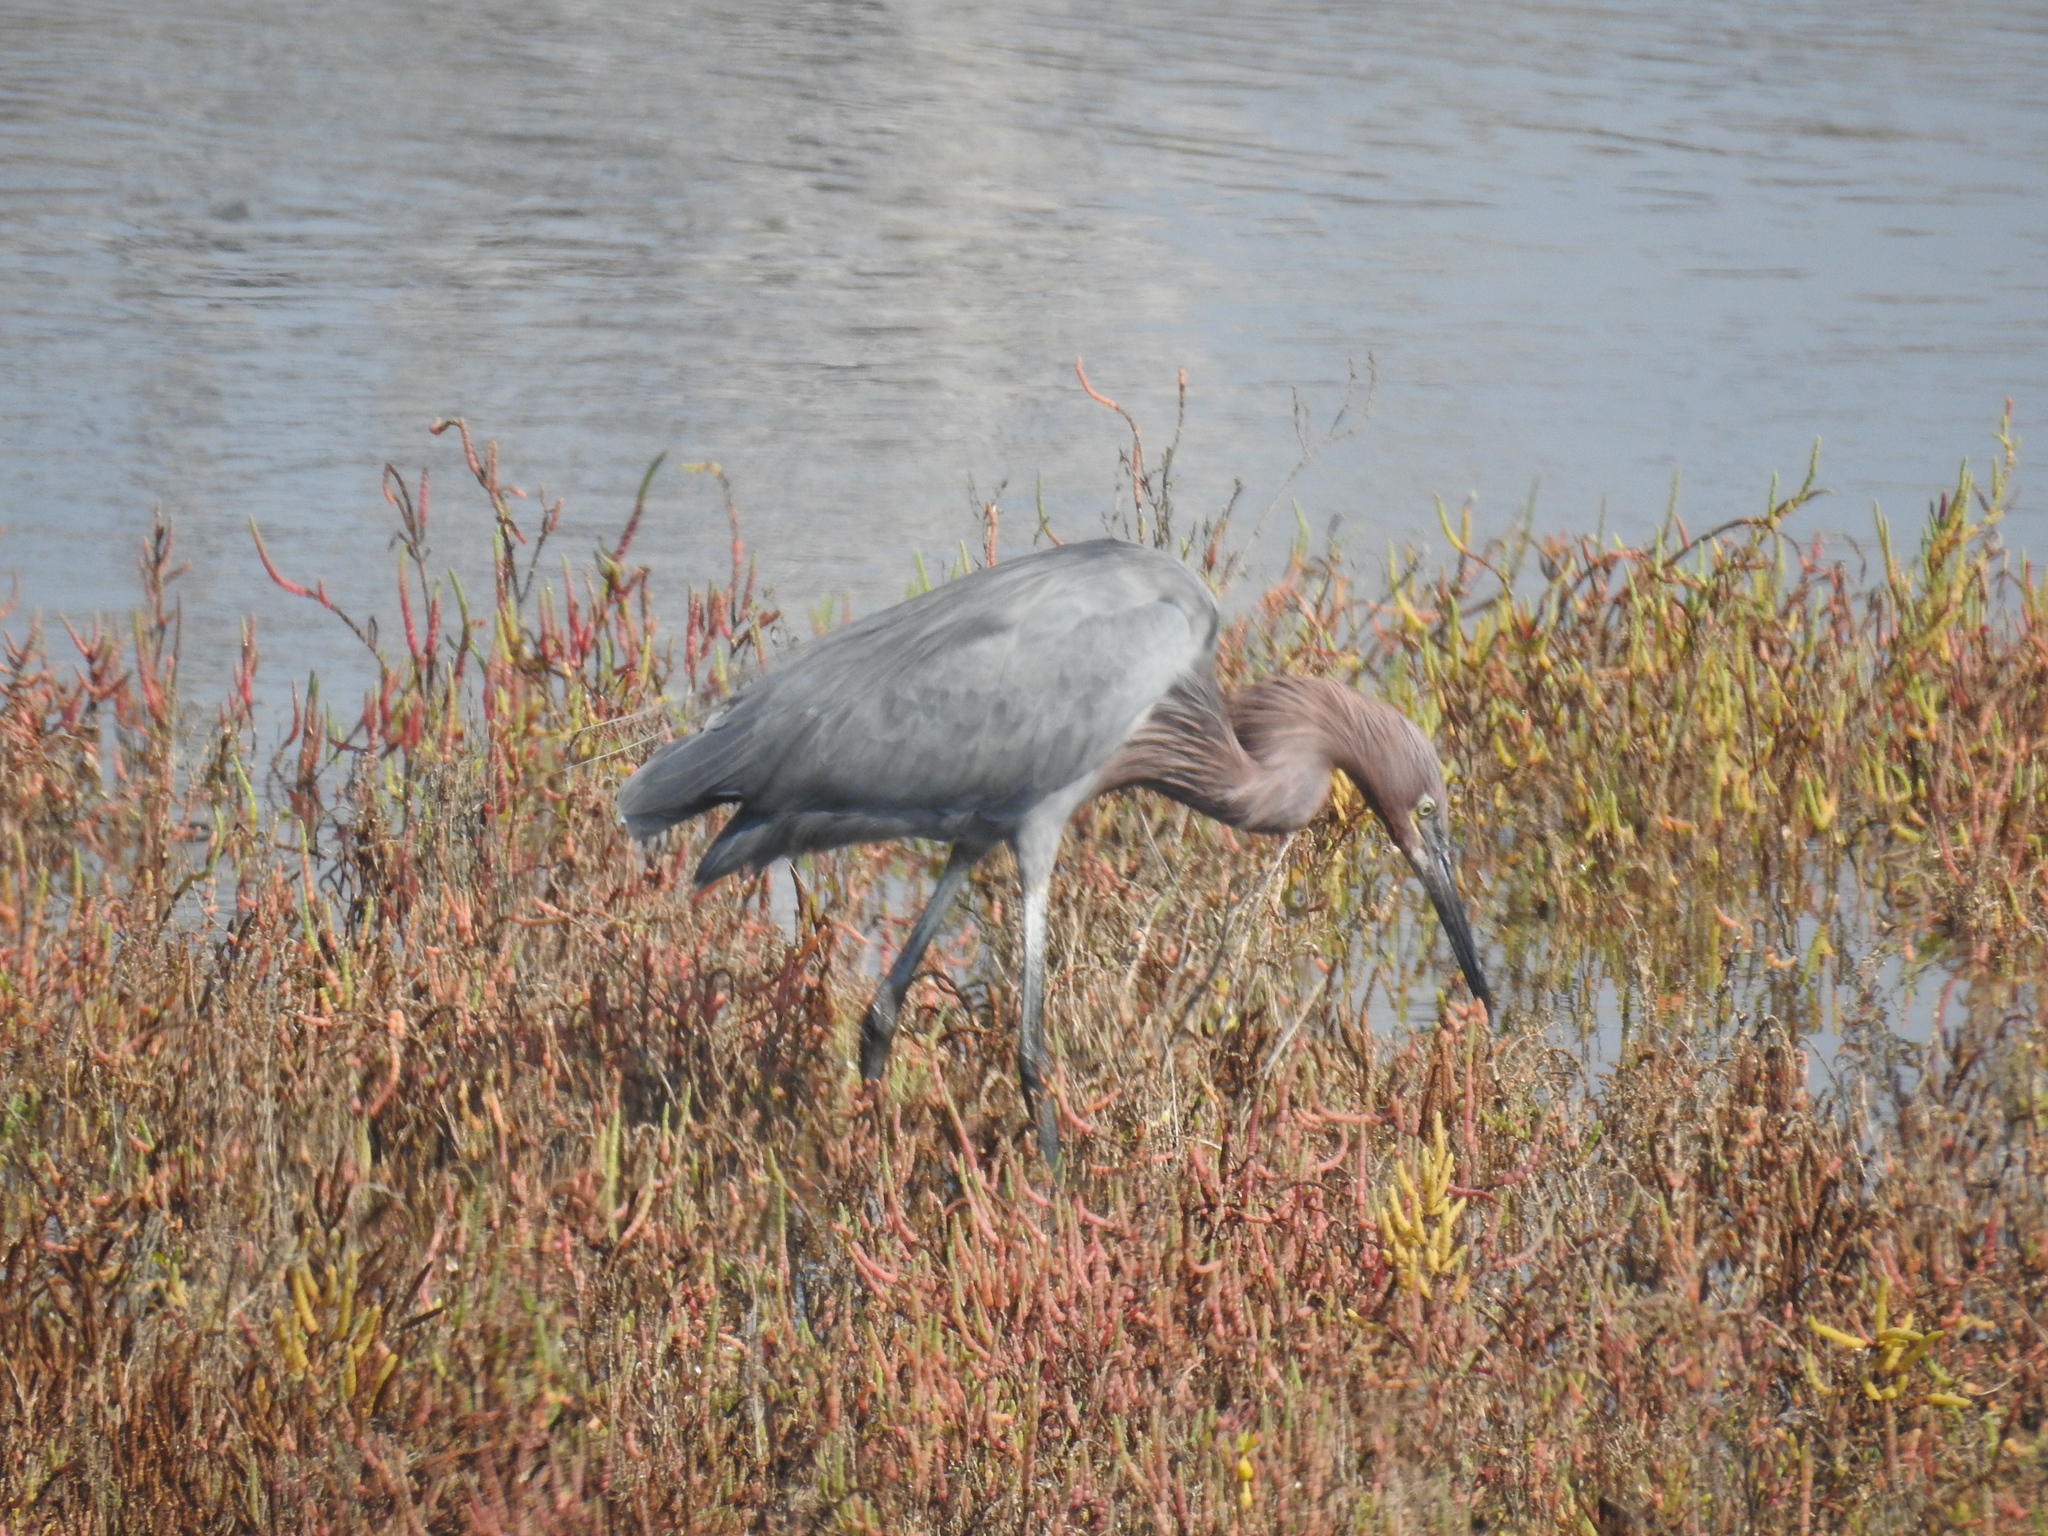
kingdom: Animalia
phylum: Chordata
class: Aves
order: Pelecaniformes
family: Ardeidae
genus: Egretta
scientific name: Egretta rufescens
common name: Reddish egret
